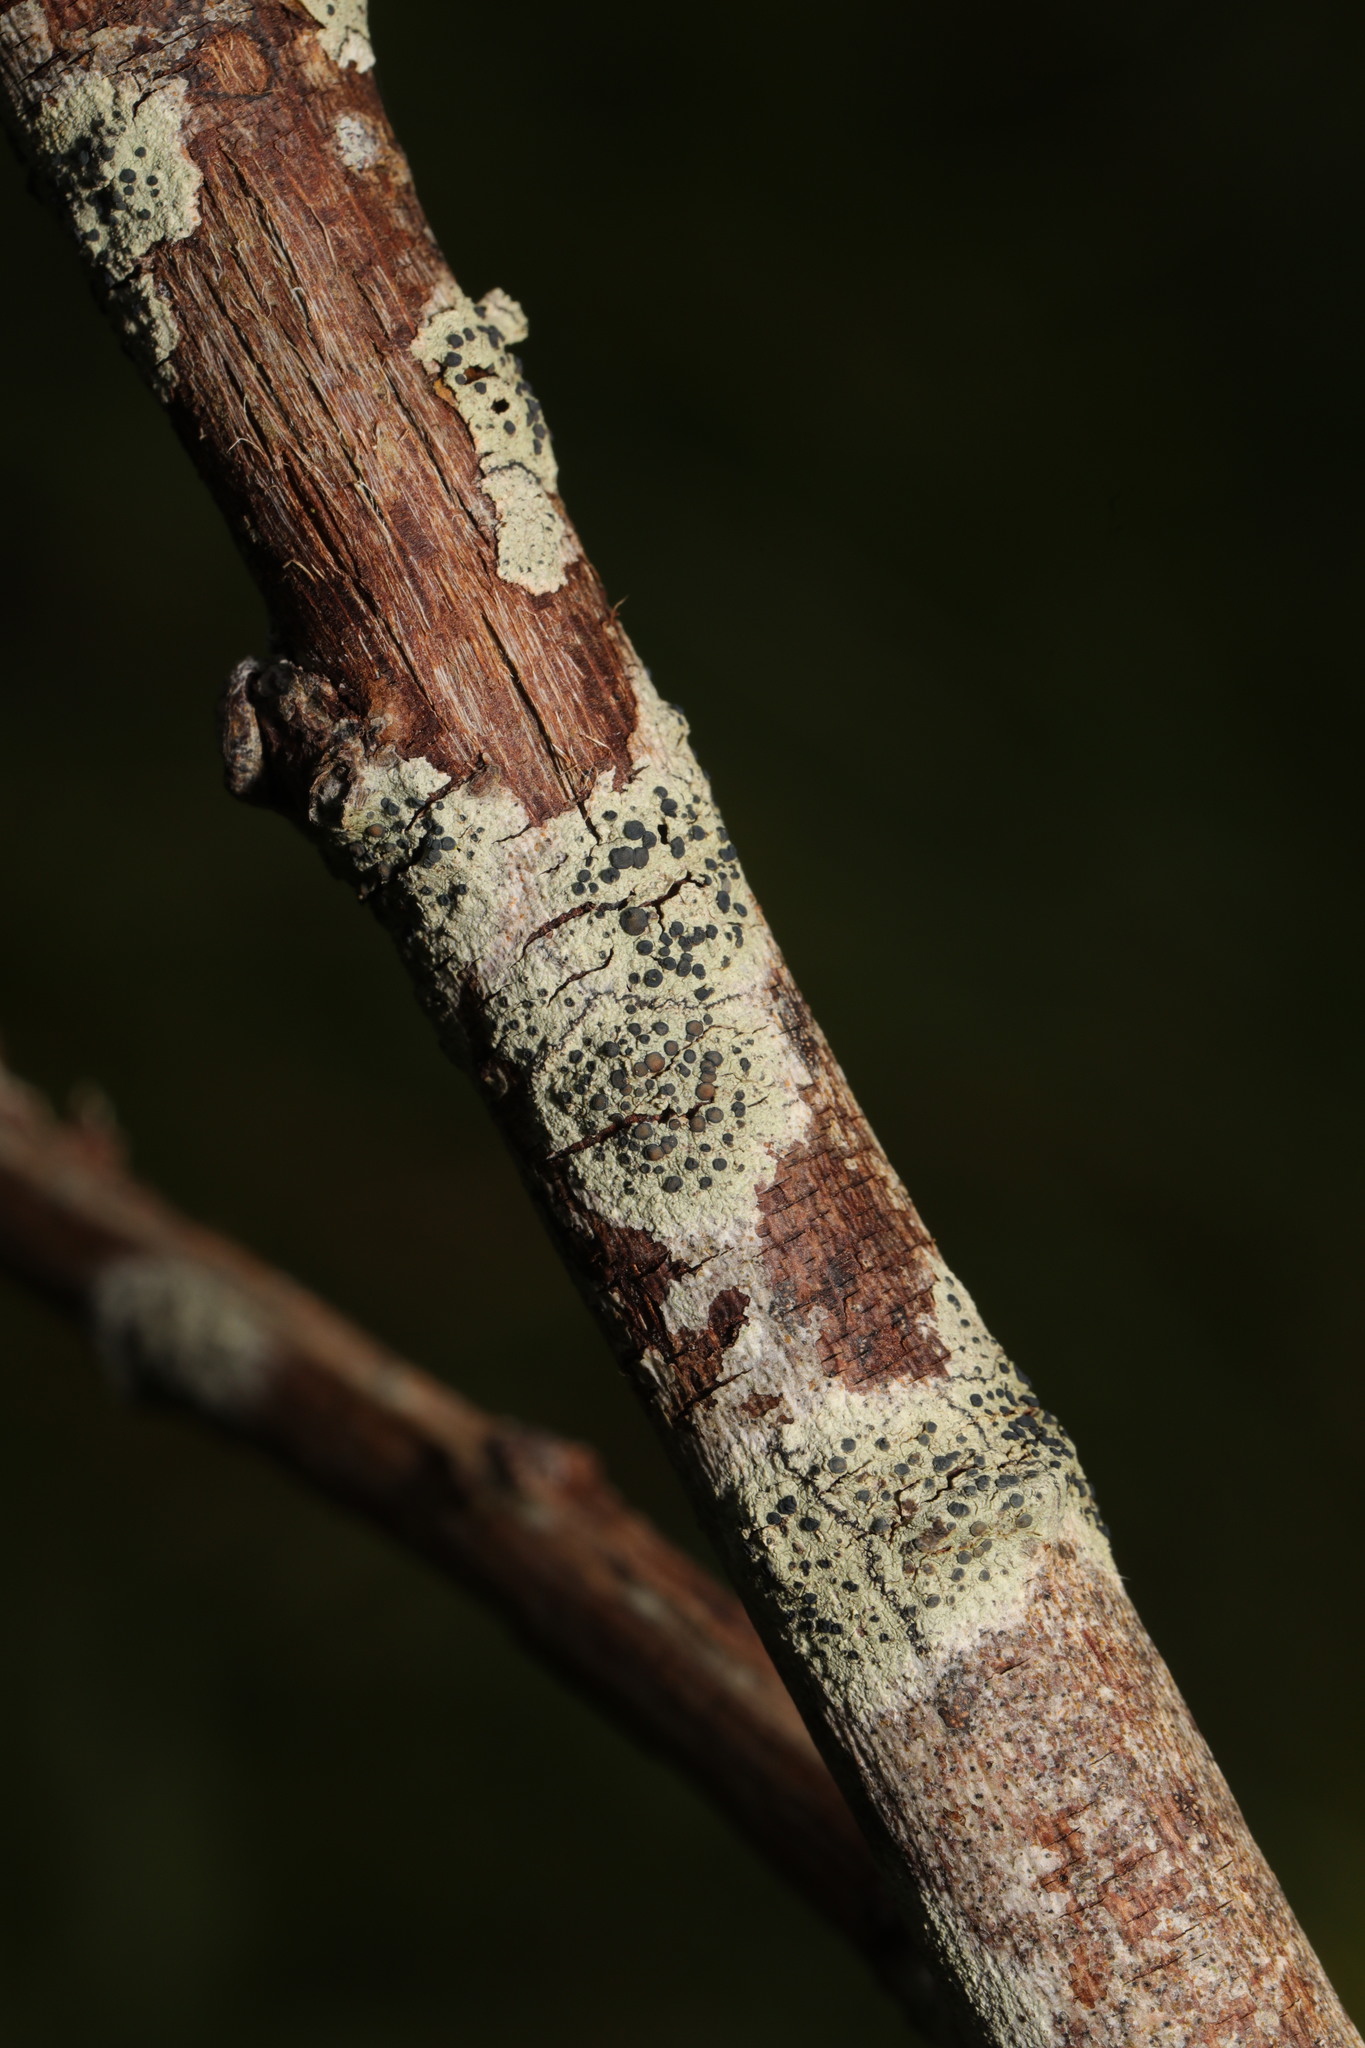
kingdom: Fungi
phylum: Ascomycota
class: Lecanoromycetes
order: Lecanorales
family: Lecanoraceae
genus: Lecidella
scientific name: Lecidella elaeochroma
